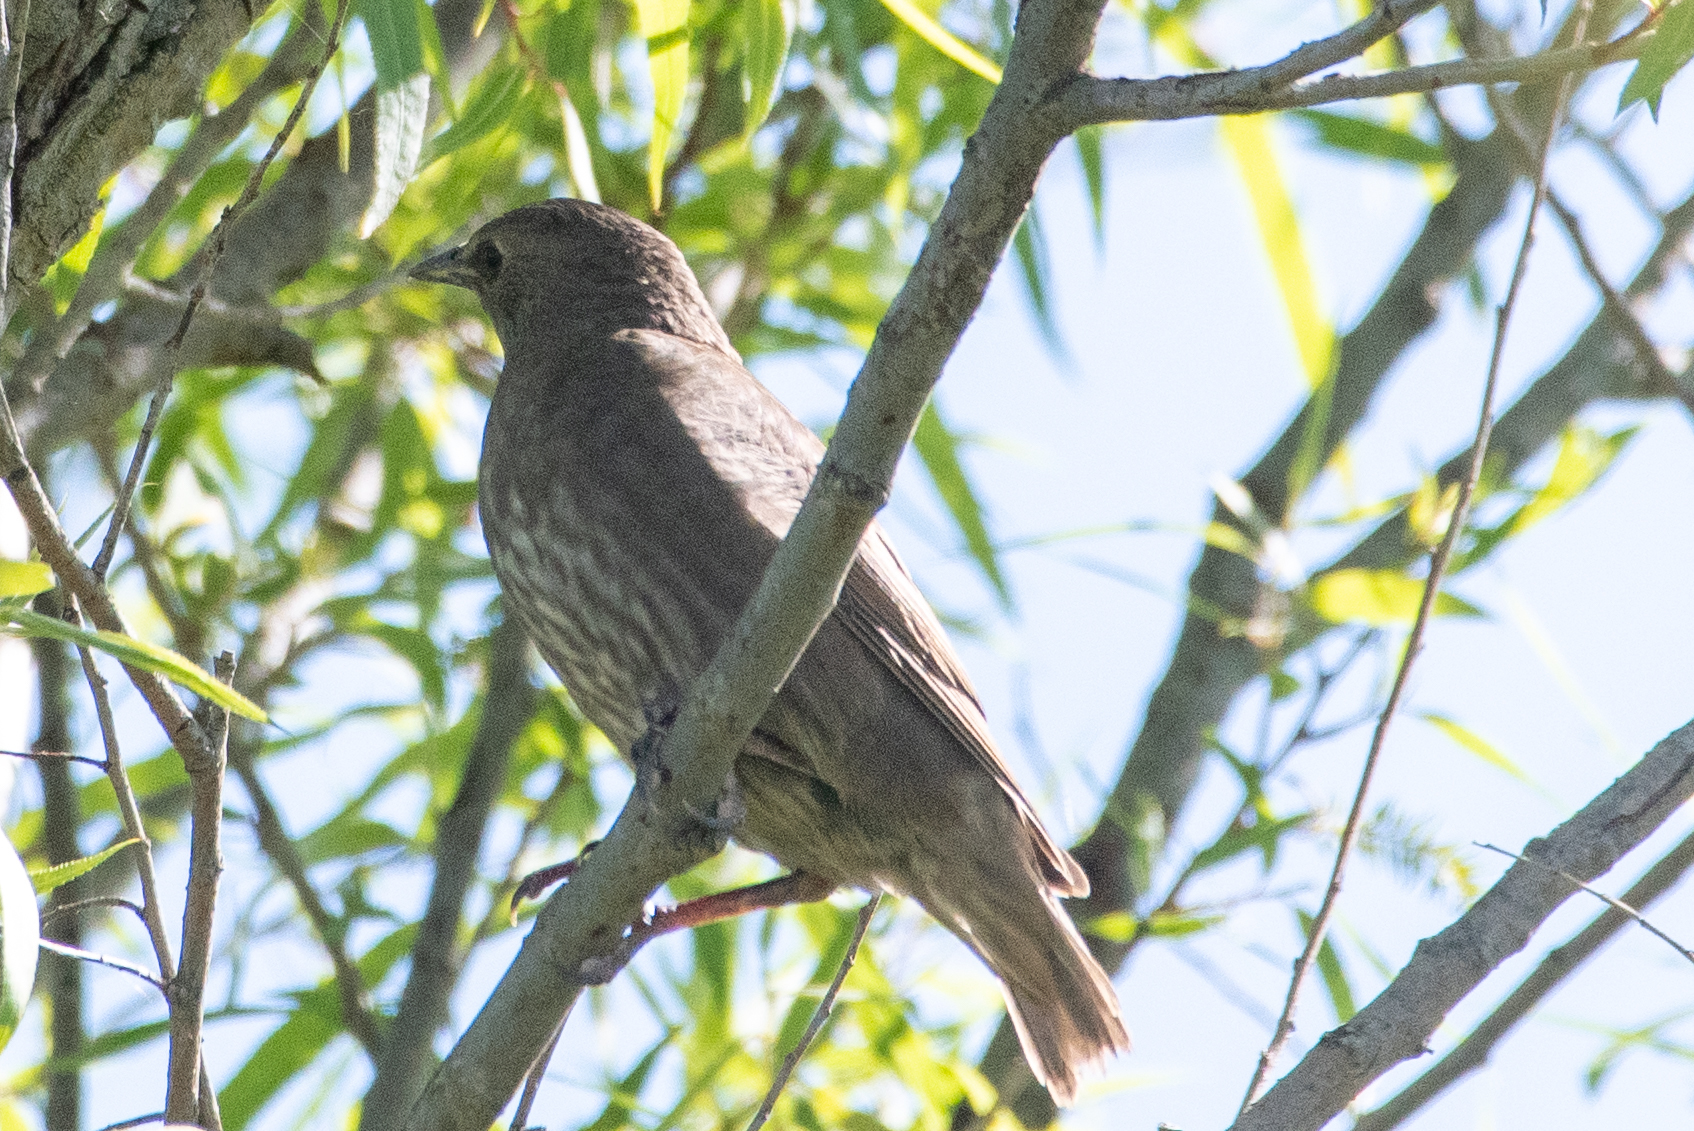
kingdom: Animalia
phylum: Chordata
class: Aves
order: Passeriformes
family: Sturnidae
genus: Sturnus
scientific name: Sturnus vulgaris
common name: Common starling
